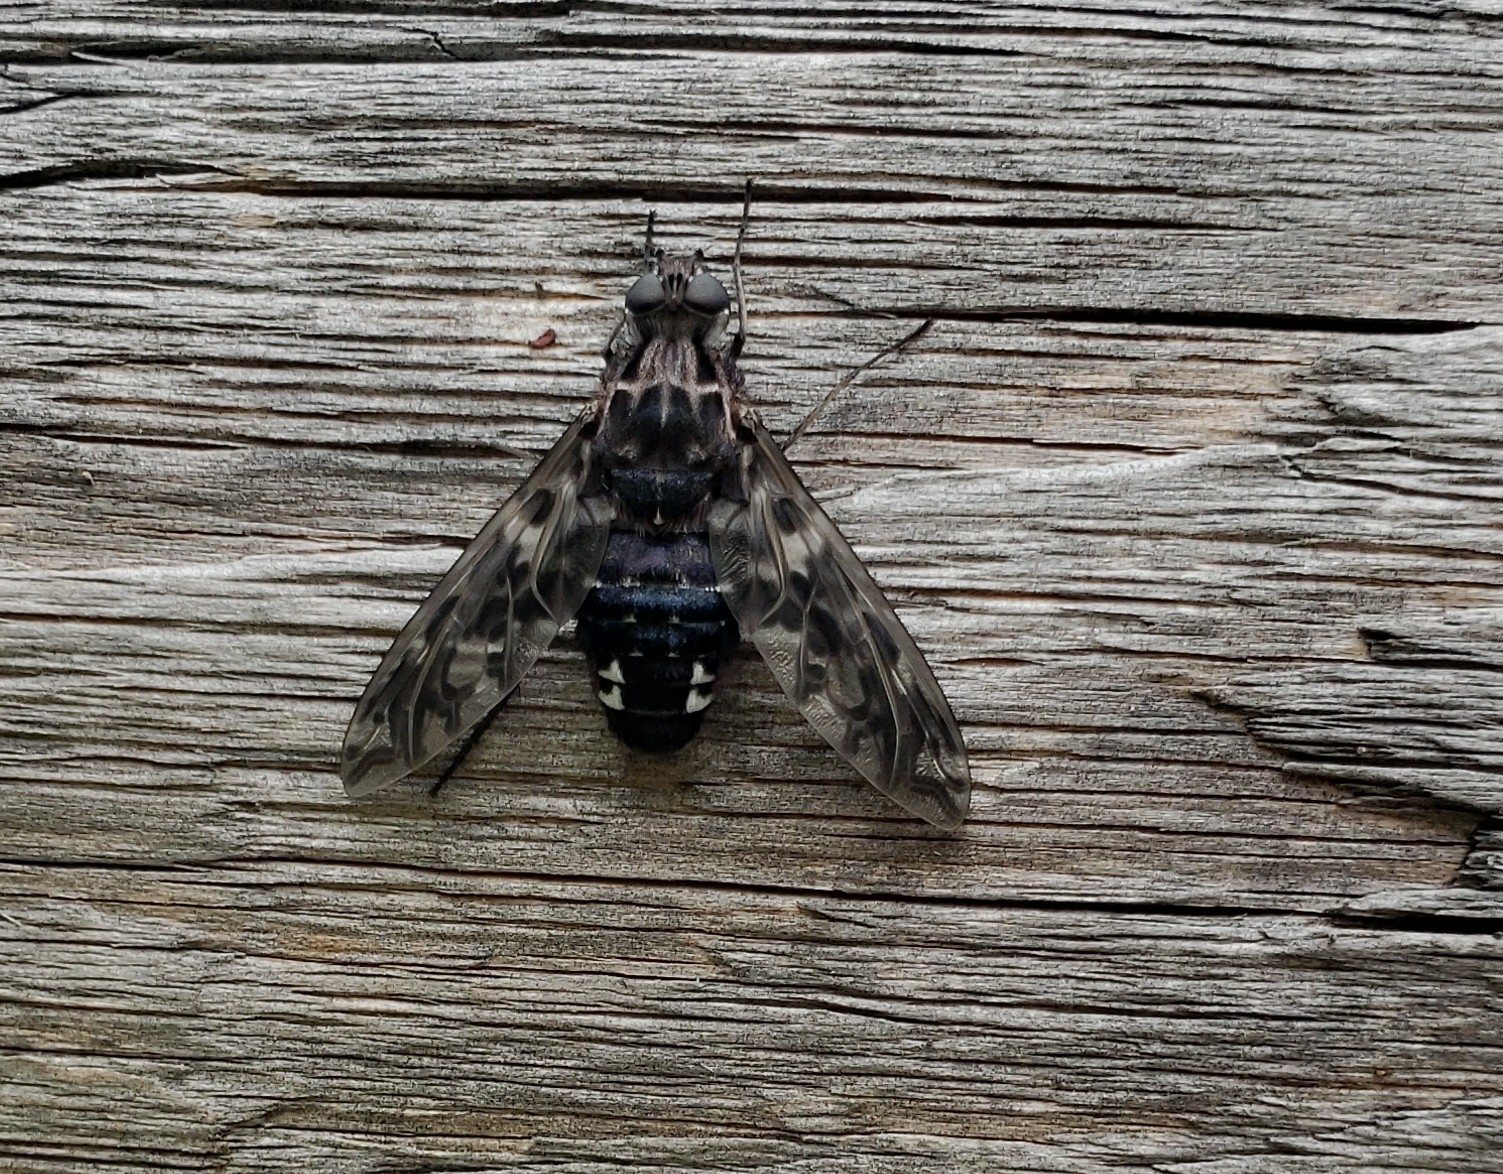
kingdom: Animalia
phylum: Arthropoda
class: Insecta
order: Diptera
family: Bombyliidae
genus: Xenox
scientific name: Xenox tigrinus
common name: Tiger bee fly
